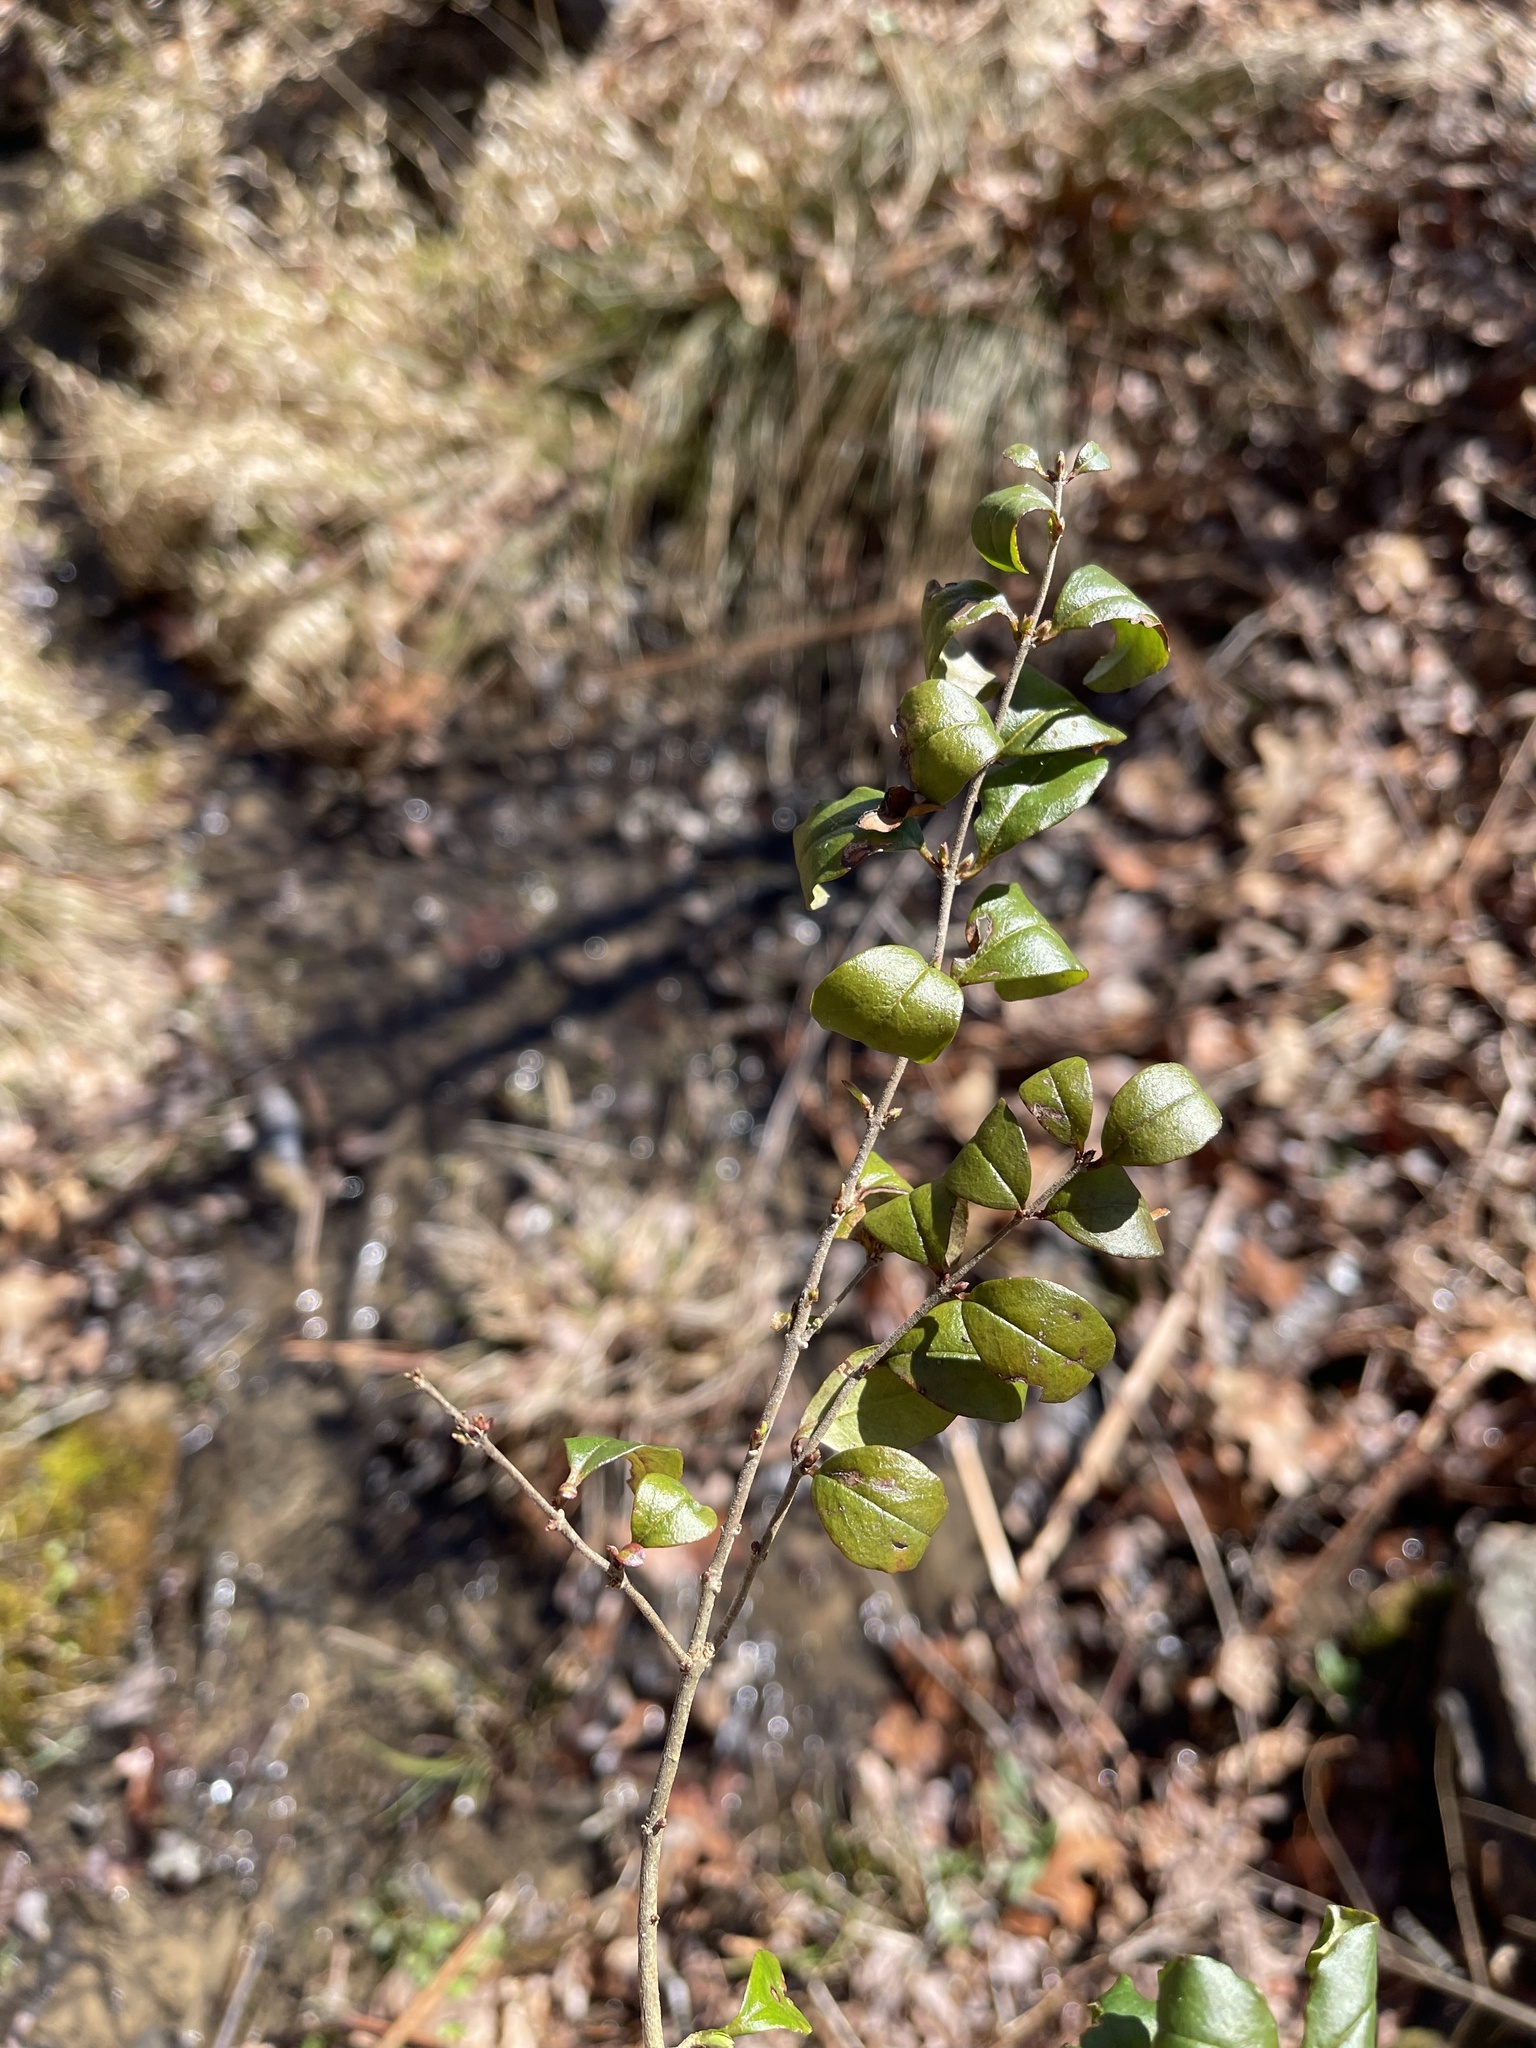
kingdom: Plantae
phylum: Tracheophyta
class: Magnoliopsida
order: Lamiales
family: Oleaceae
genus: Ligustrum
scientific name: Ligustrum sinense
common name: Chinese privet
